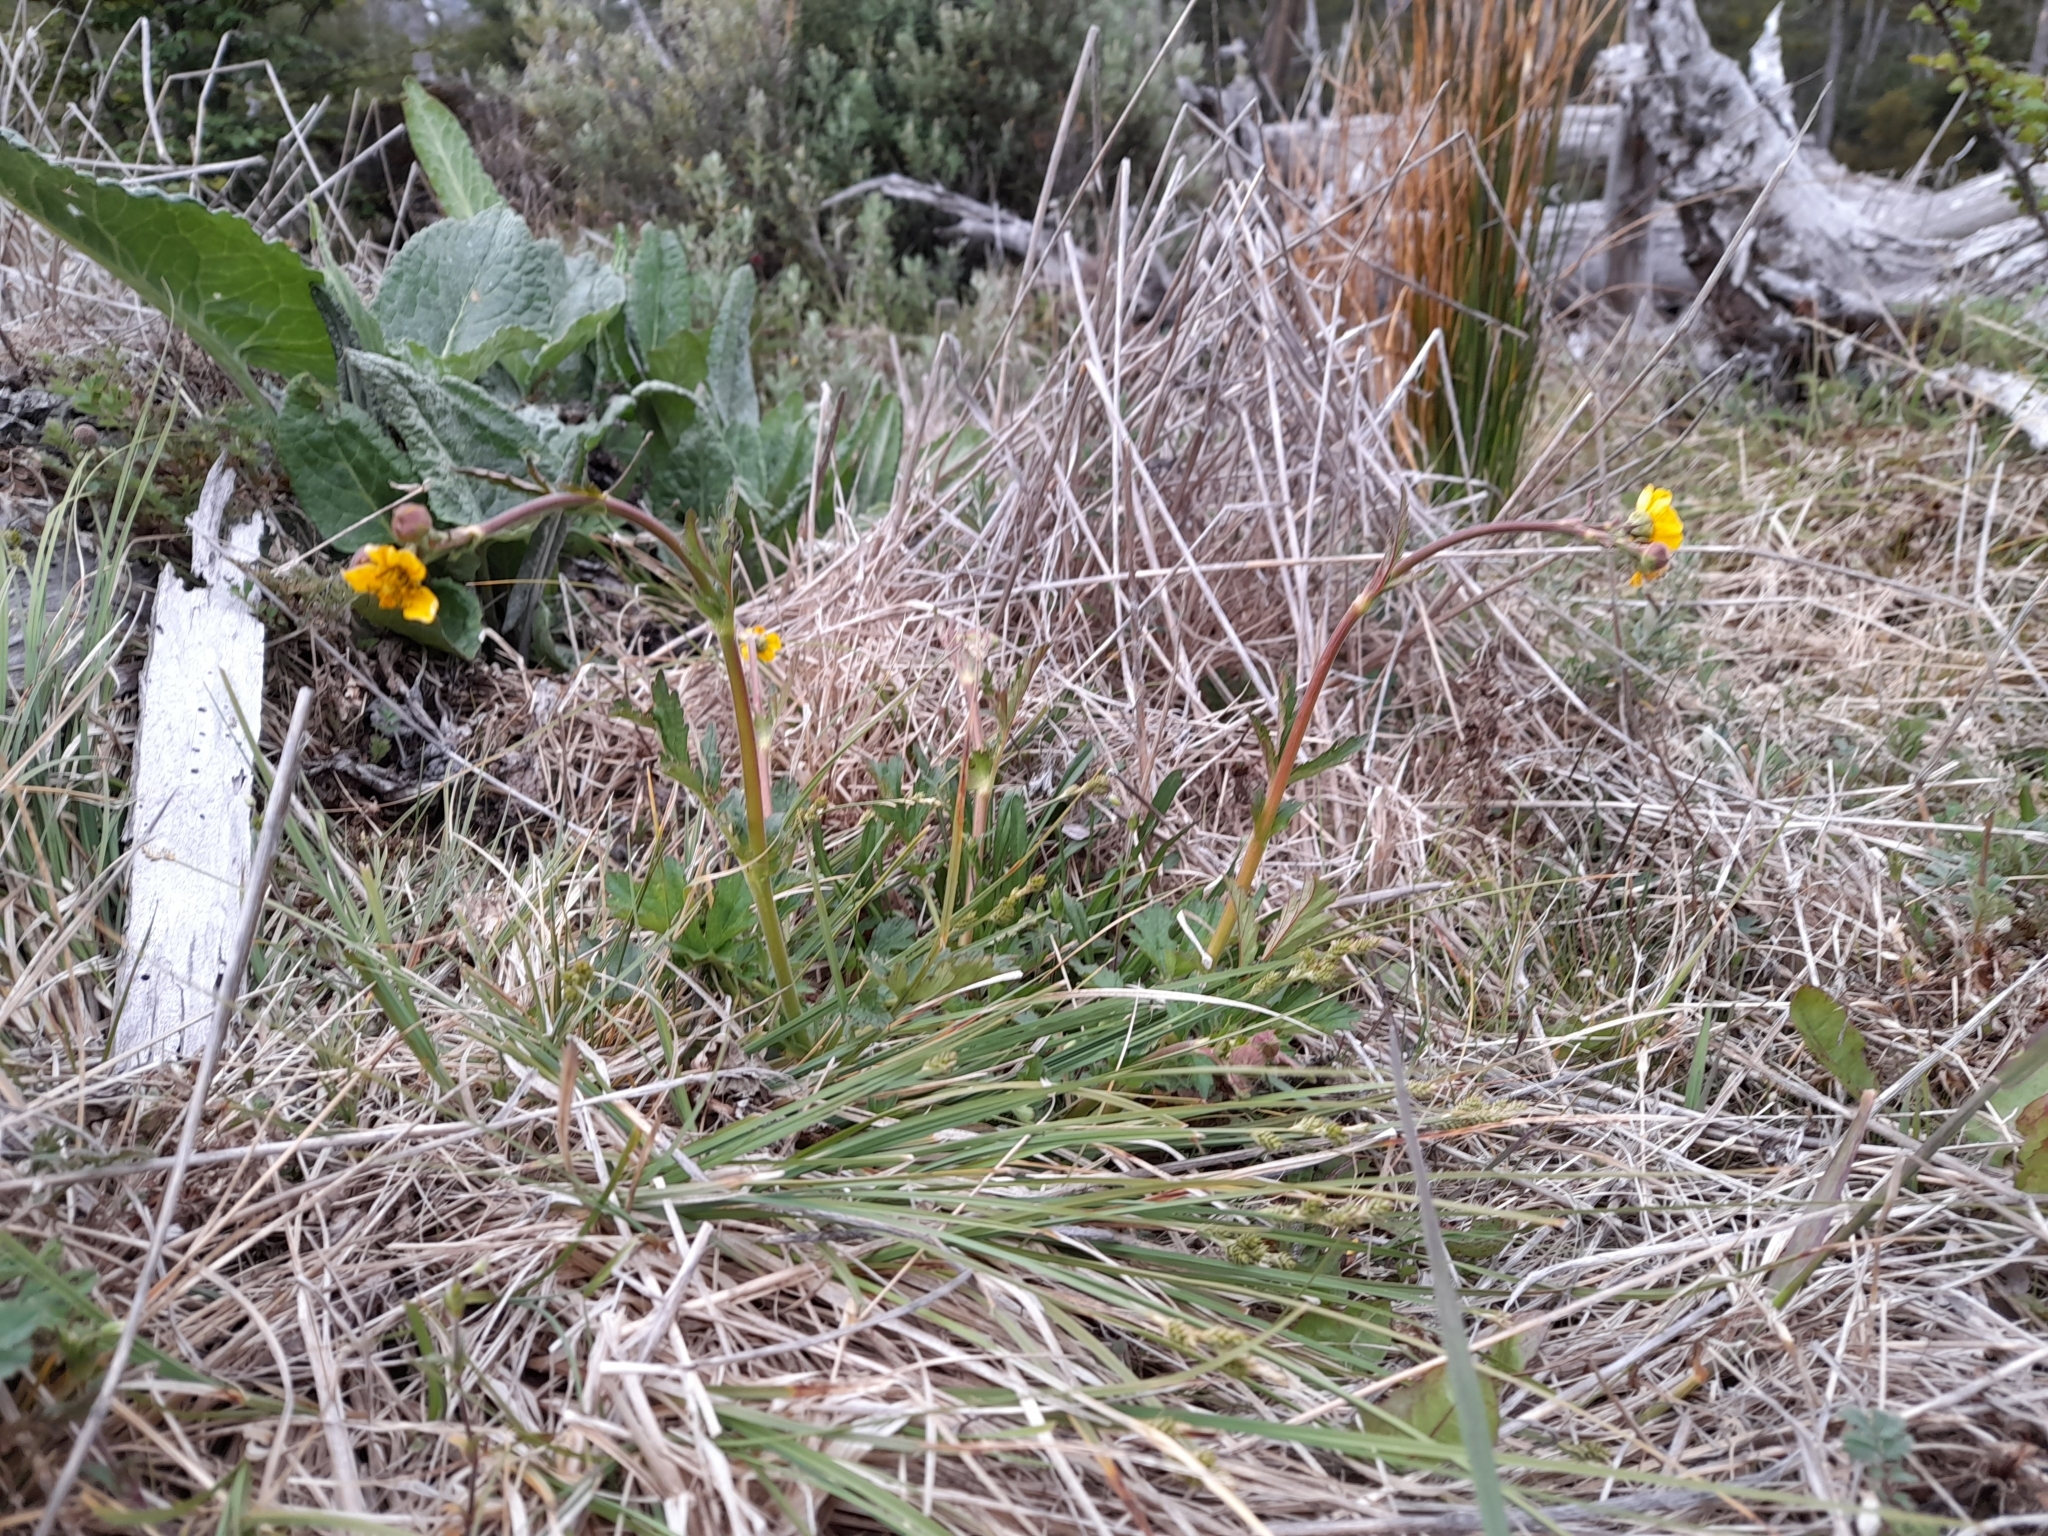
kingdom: Plantae
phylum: Tracheophyta
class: Magnoliopsida
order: Rosales
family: Rosaceae
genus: Geum
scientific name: Geum magellanicum
